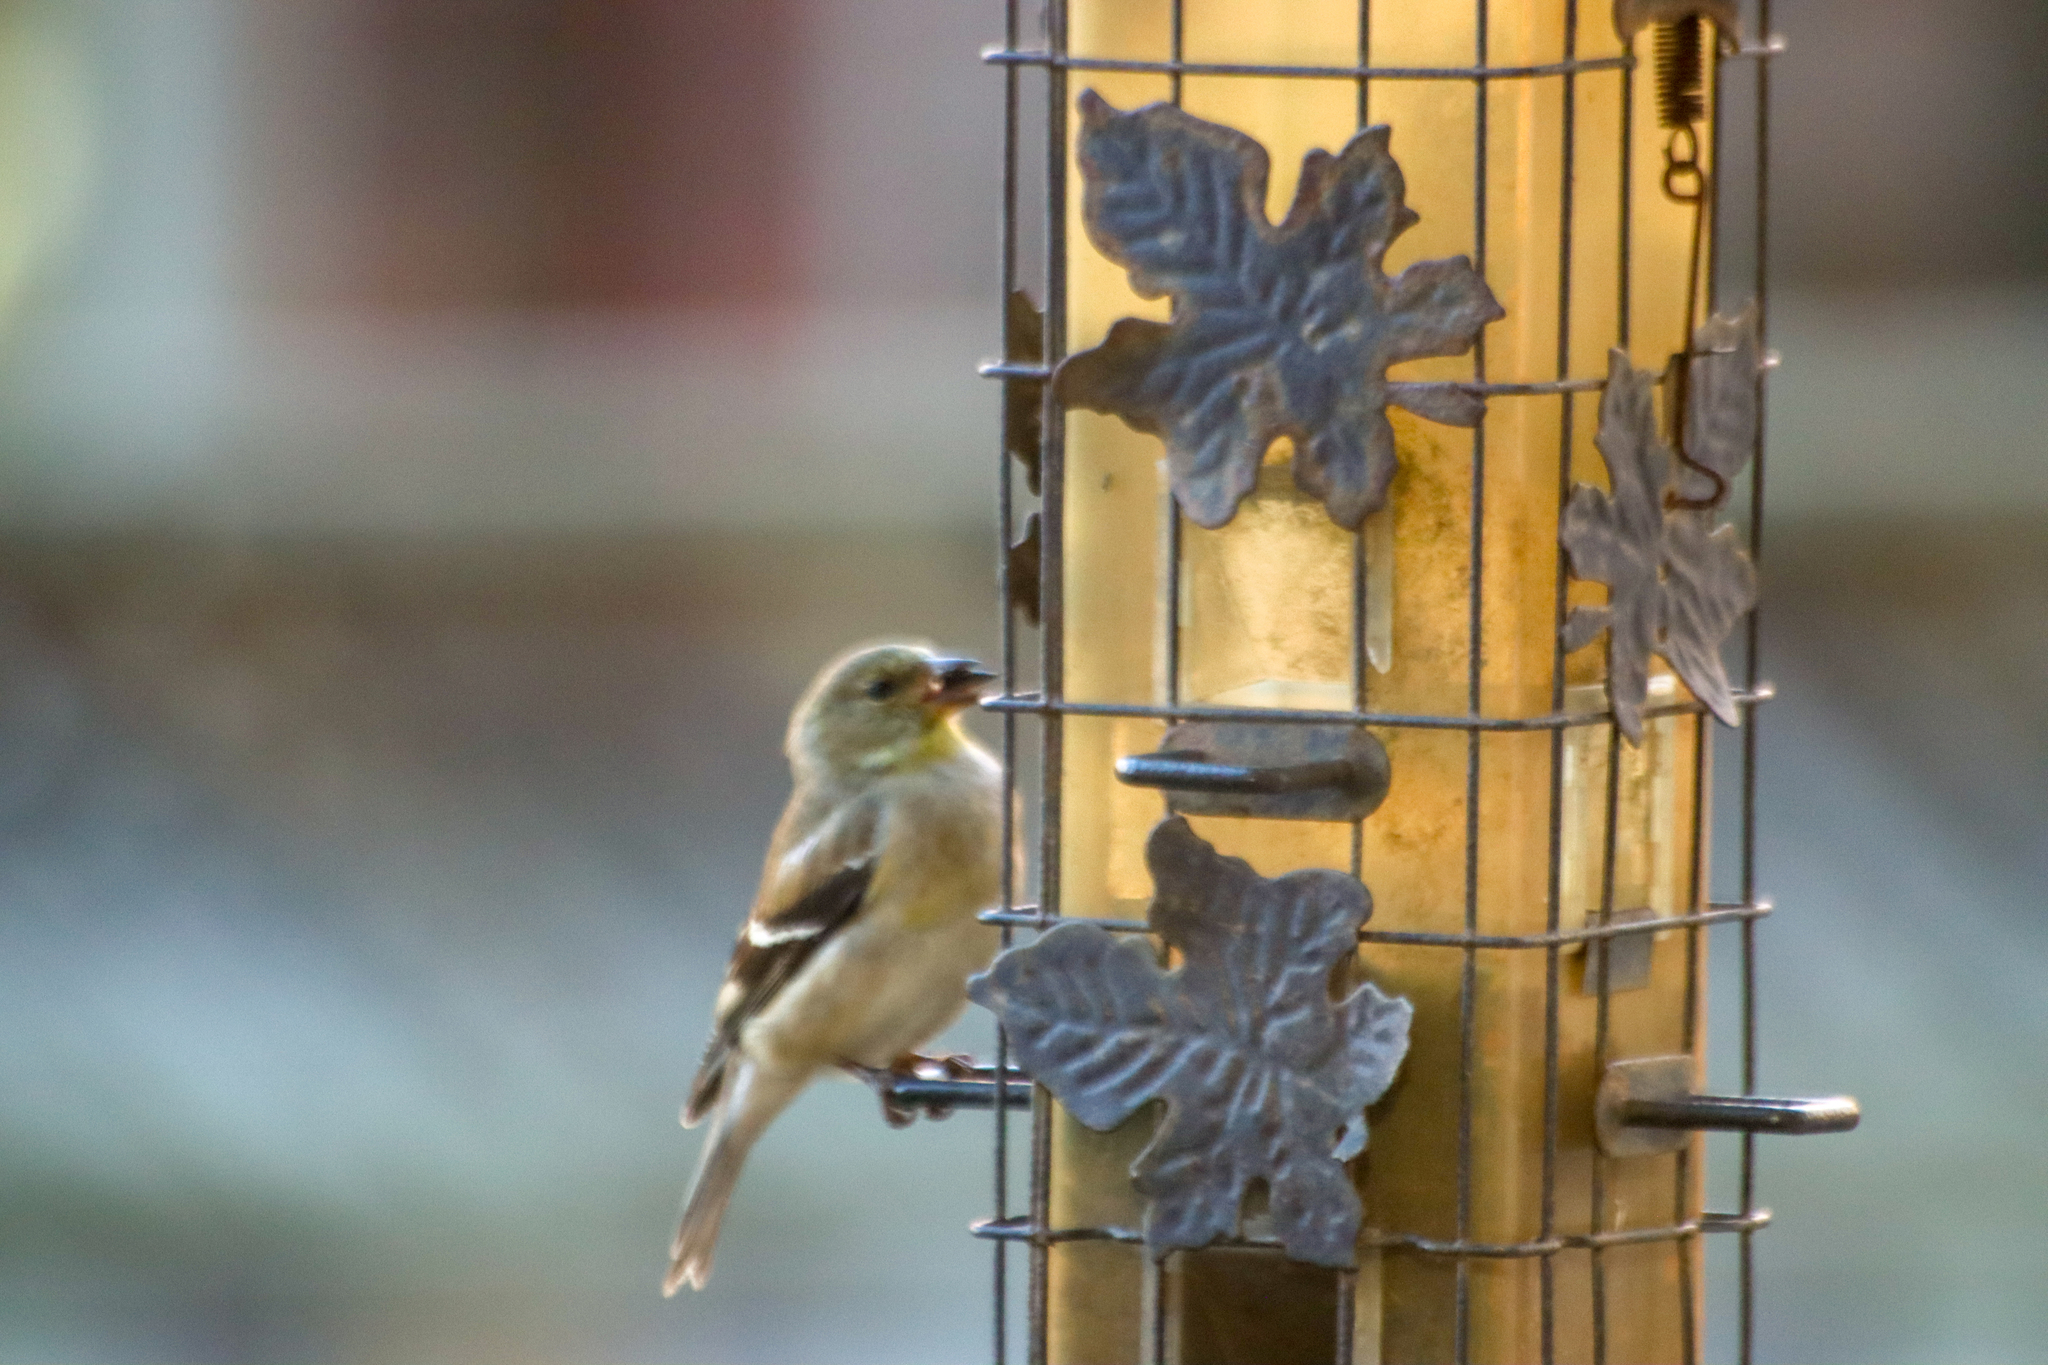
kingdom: Animalia
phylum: Chordata
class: Aves
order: Passeriformes
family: Fringillidae
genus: Spinus
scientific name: Spinus tristis
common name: American goldfinch
